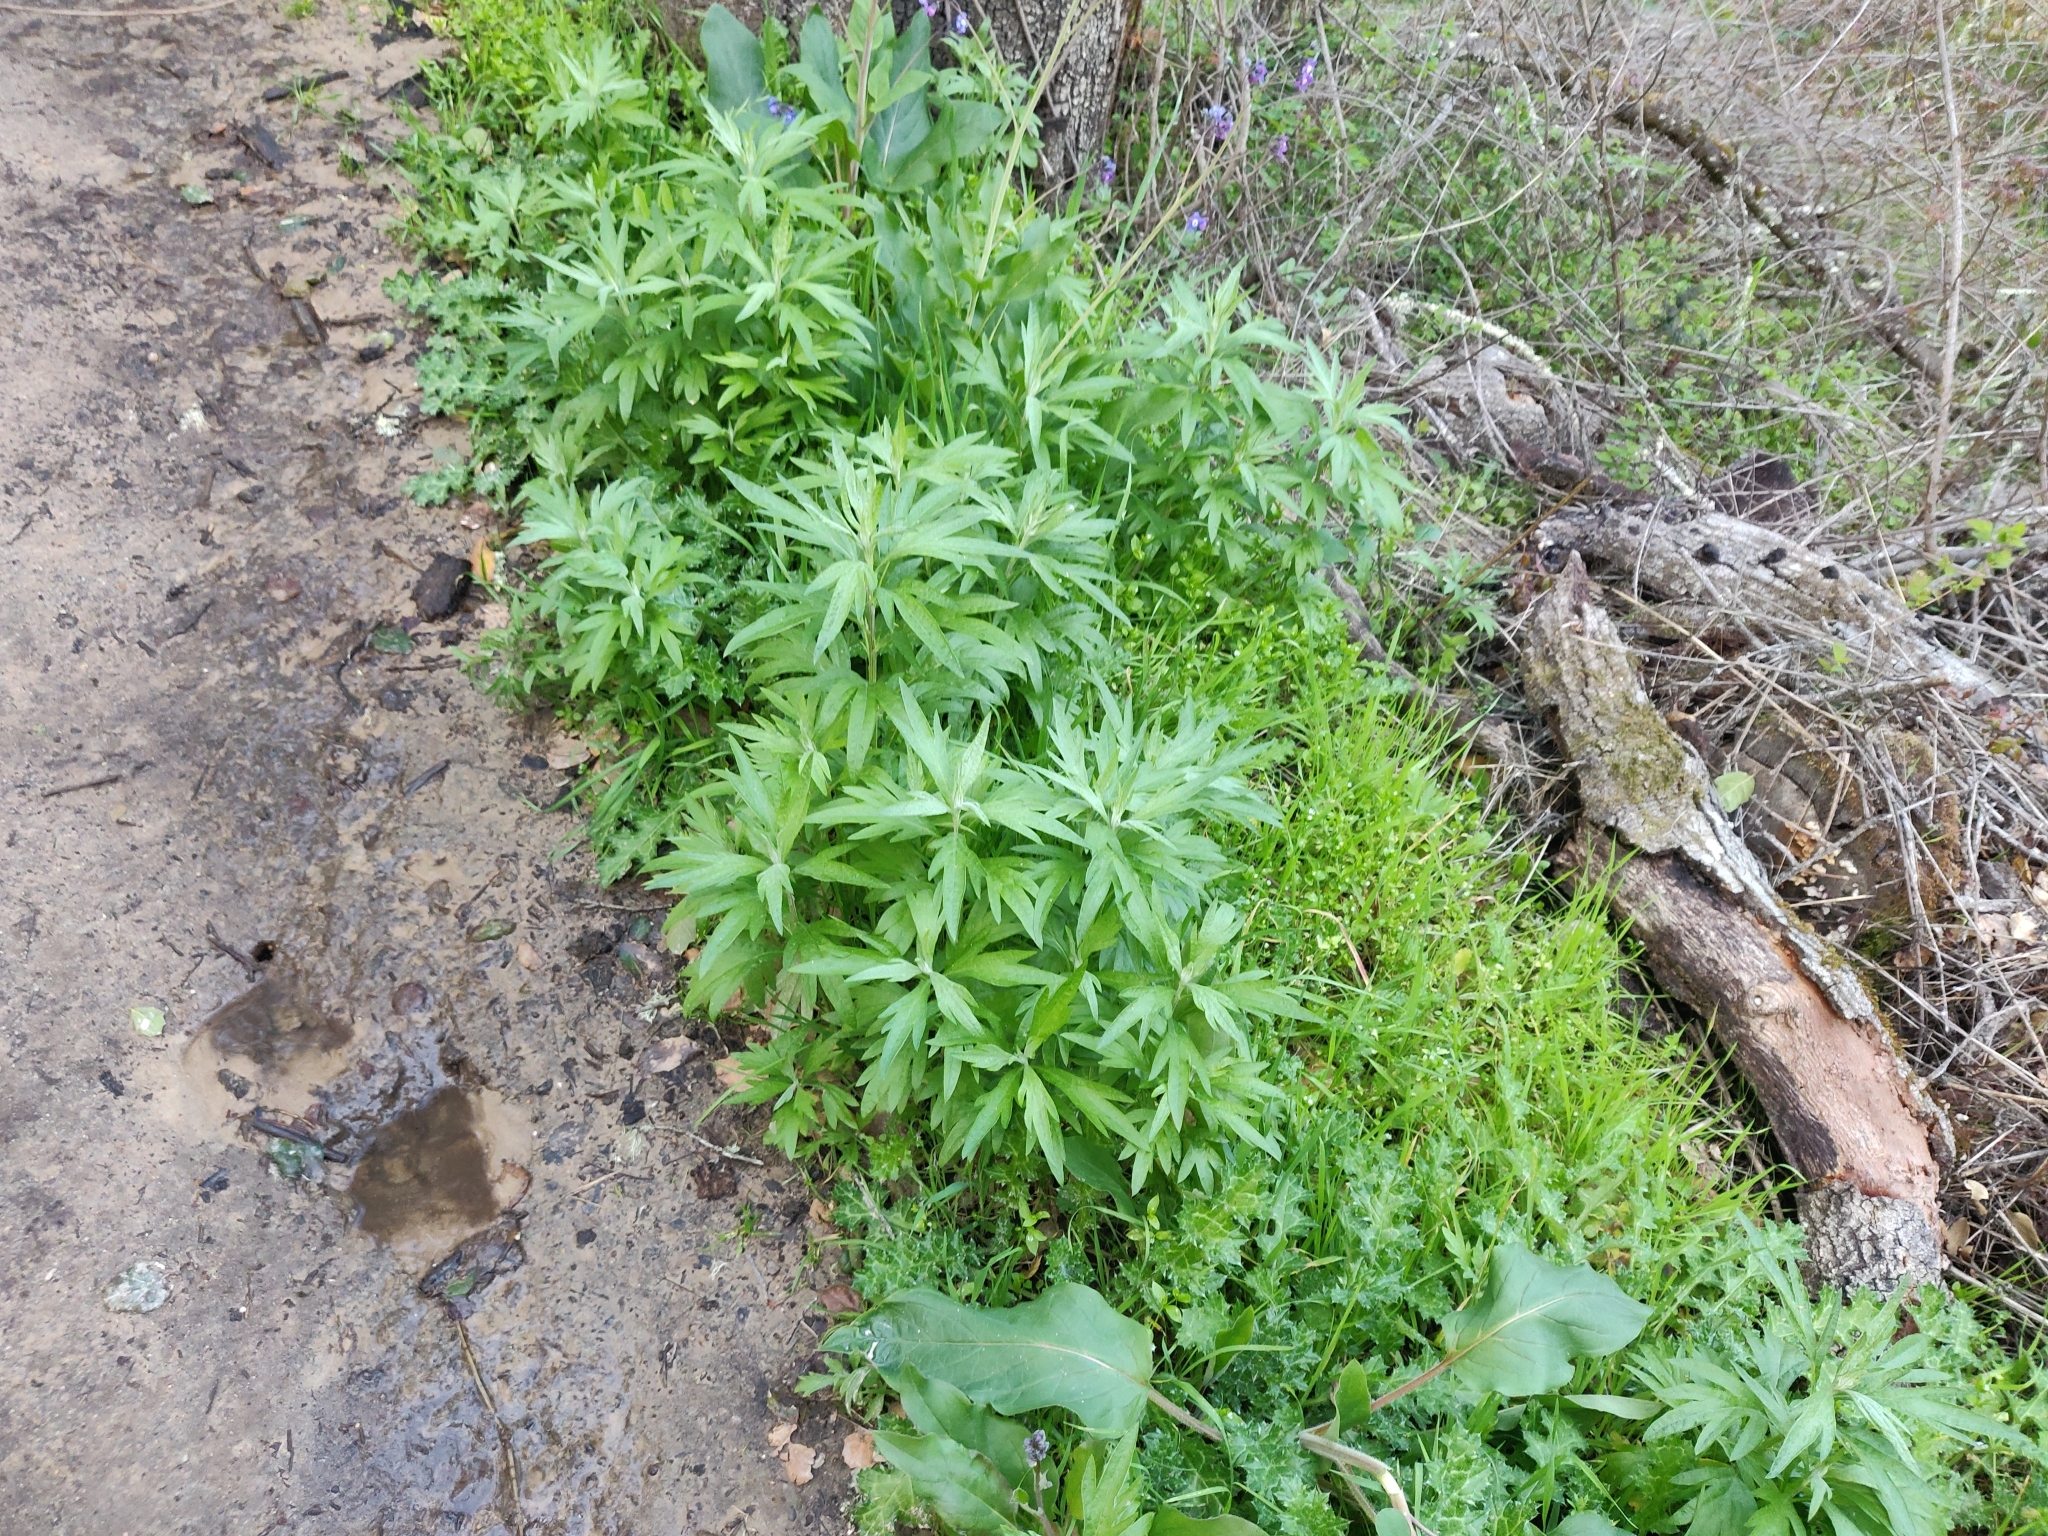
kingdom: Plantae
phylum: Tracheophyta
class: Magnoliopsida
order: Asterales
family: Asteraceae
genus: Artemisia
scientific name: Artemisia douglasiana
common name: Northwest mugwort
